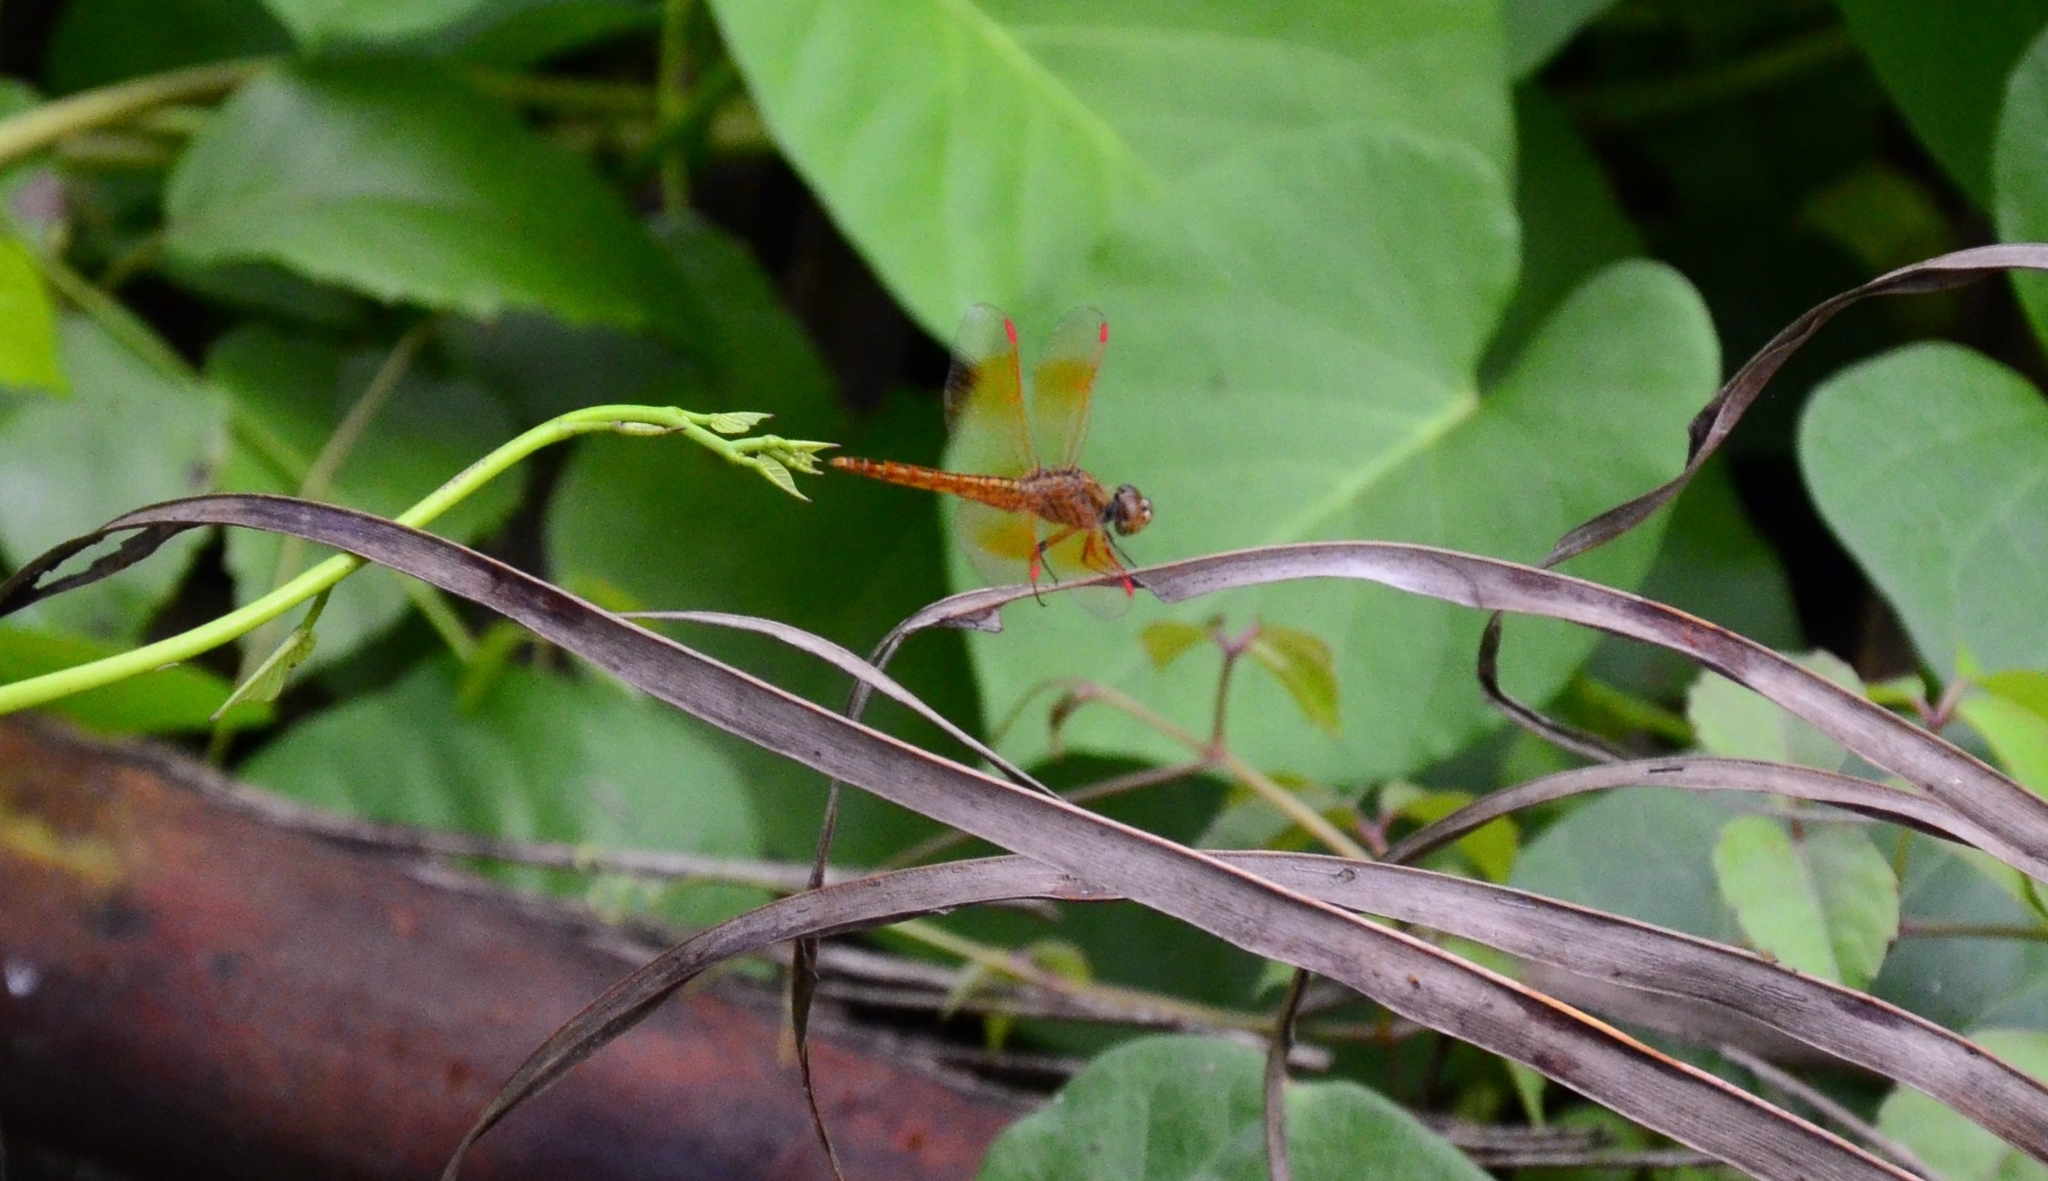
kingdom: Animalia
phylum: Arthropoda
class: Insecta
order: Odonata
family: Libellulidae
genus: Brachythemis
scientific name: Brachythemis contaminata
